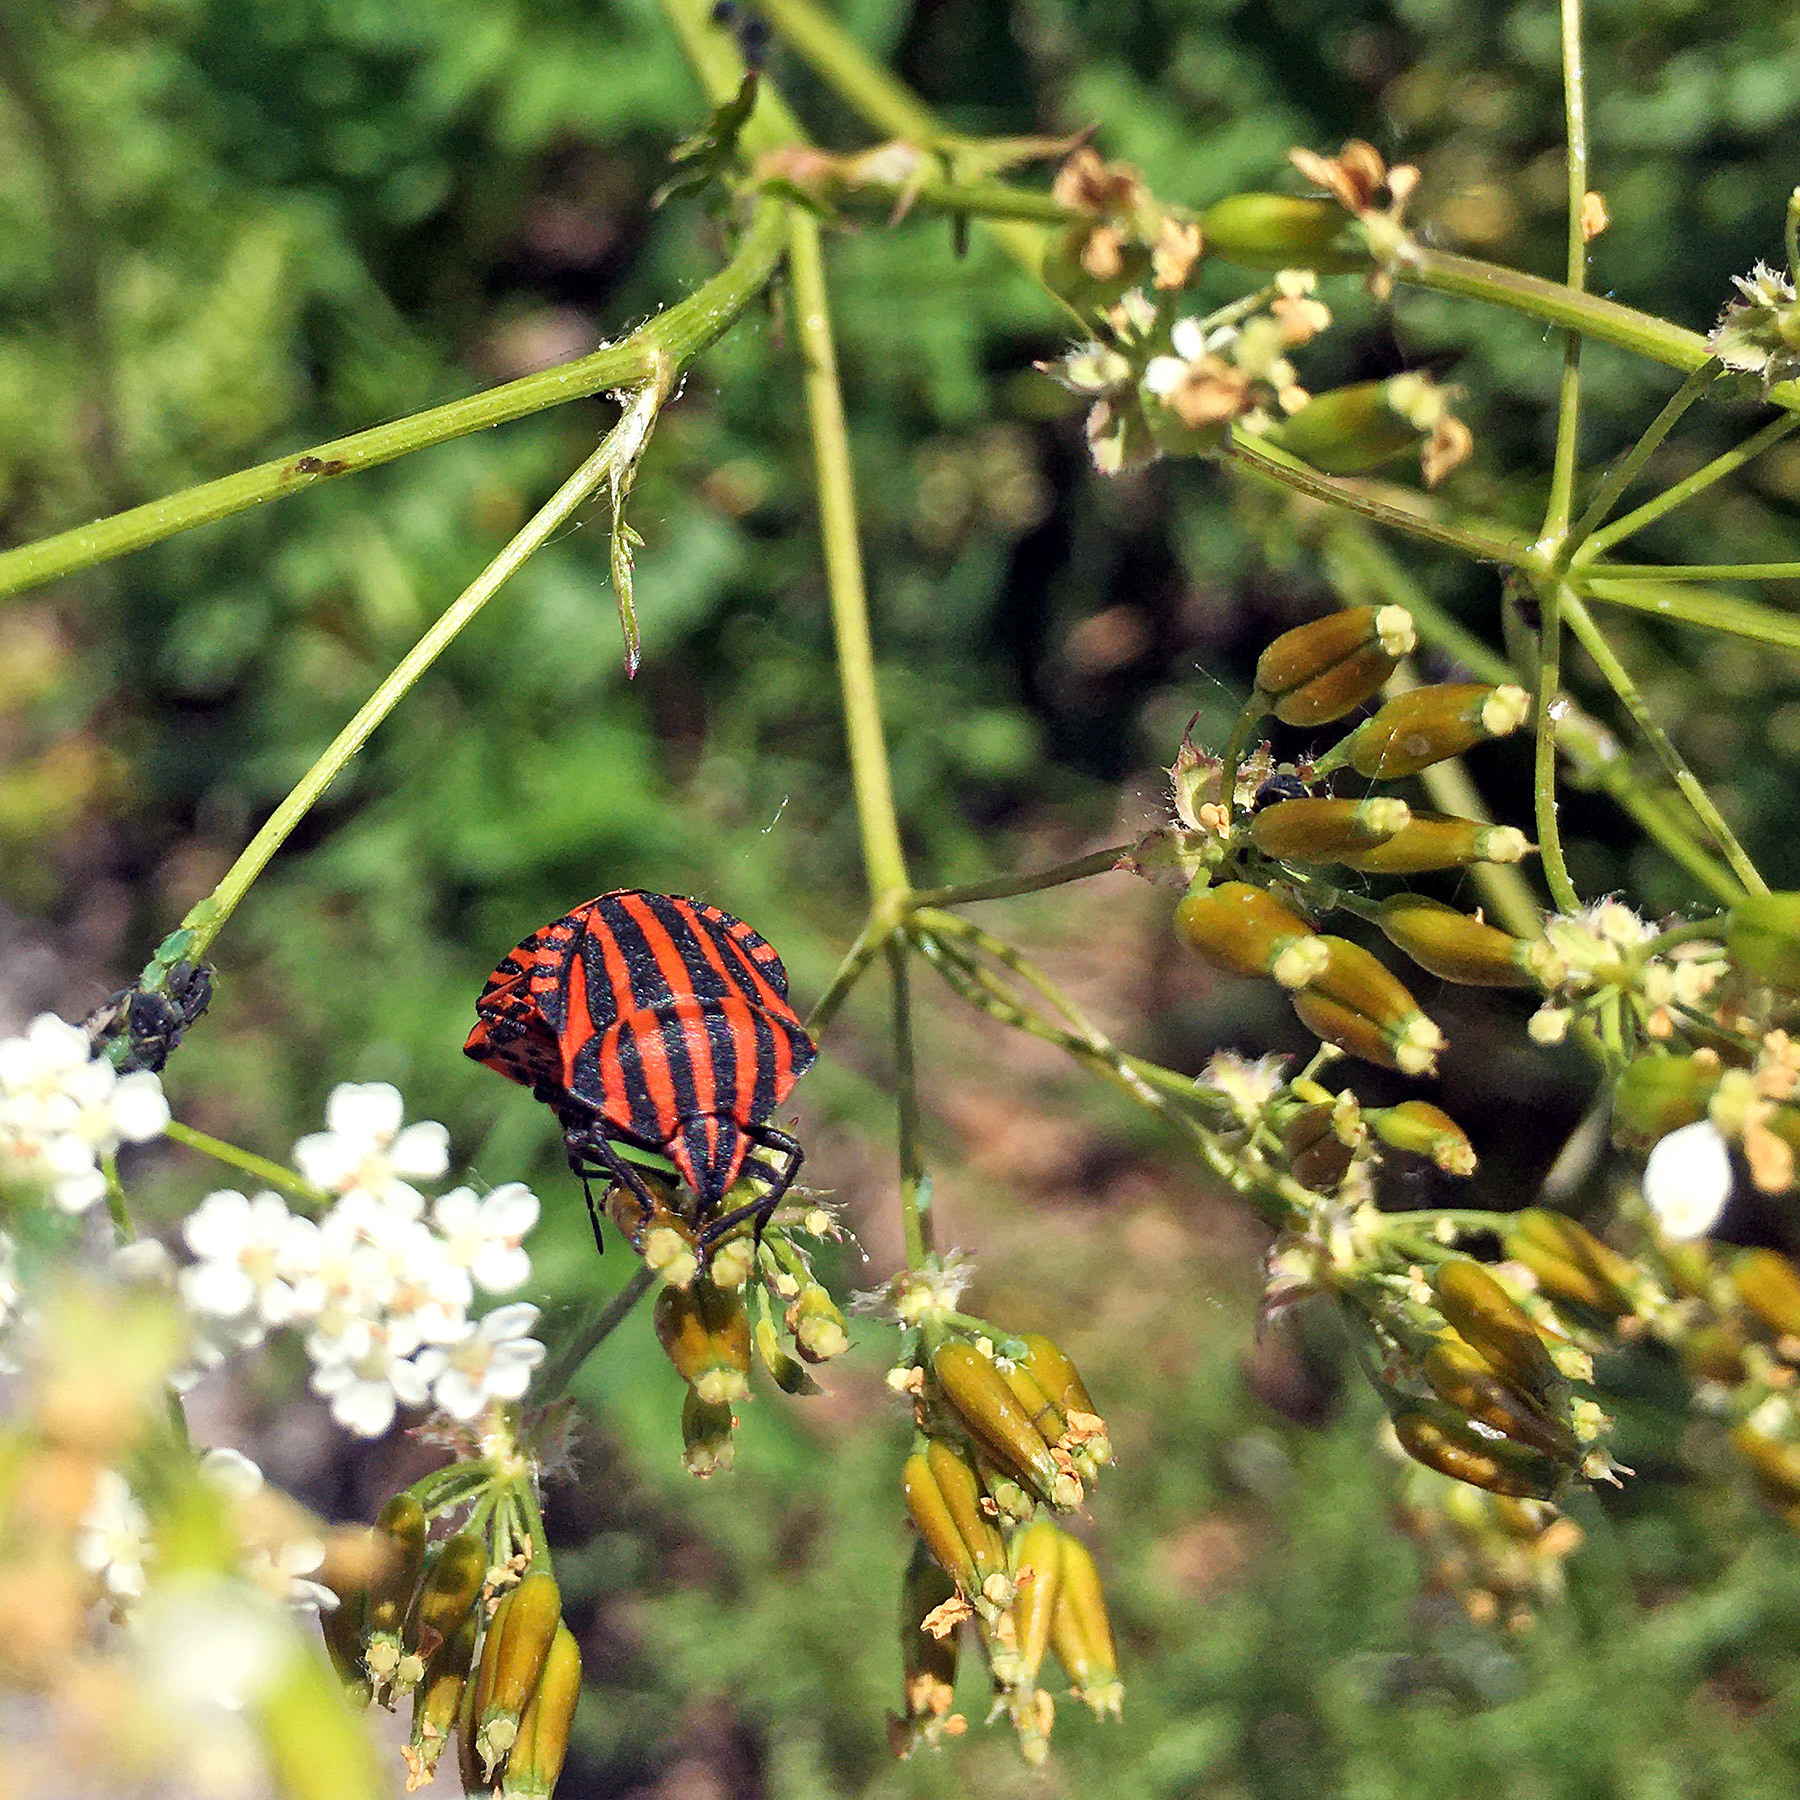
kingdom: Animalia
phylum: Arthropoda
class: Insecta
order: Hemiptera
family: Pentatomidae
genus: Graphosoma
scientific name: Graphosoma italicum
